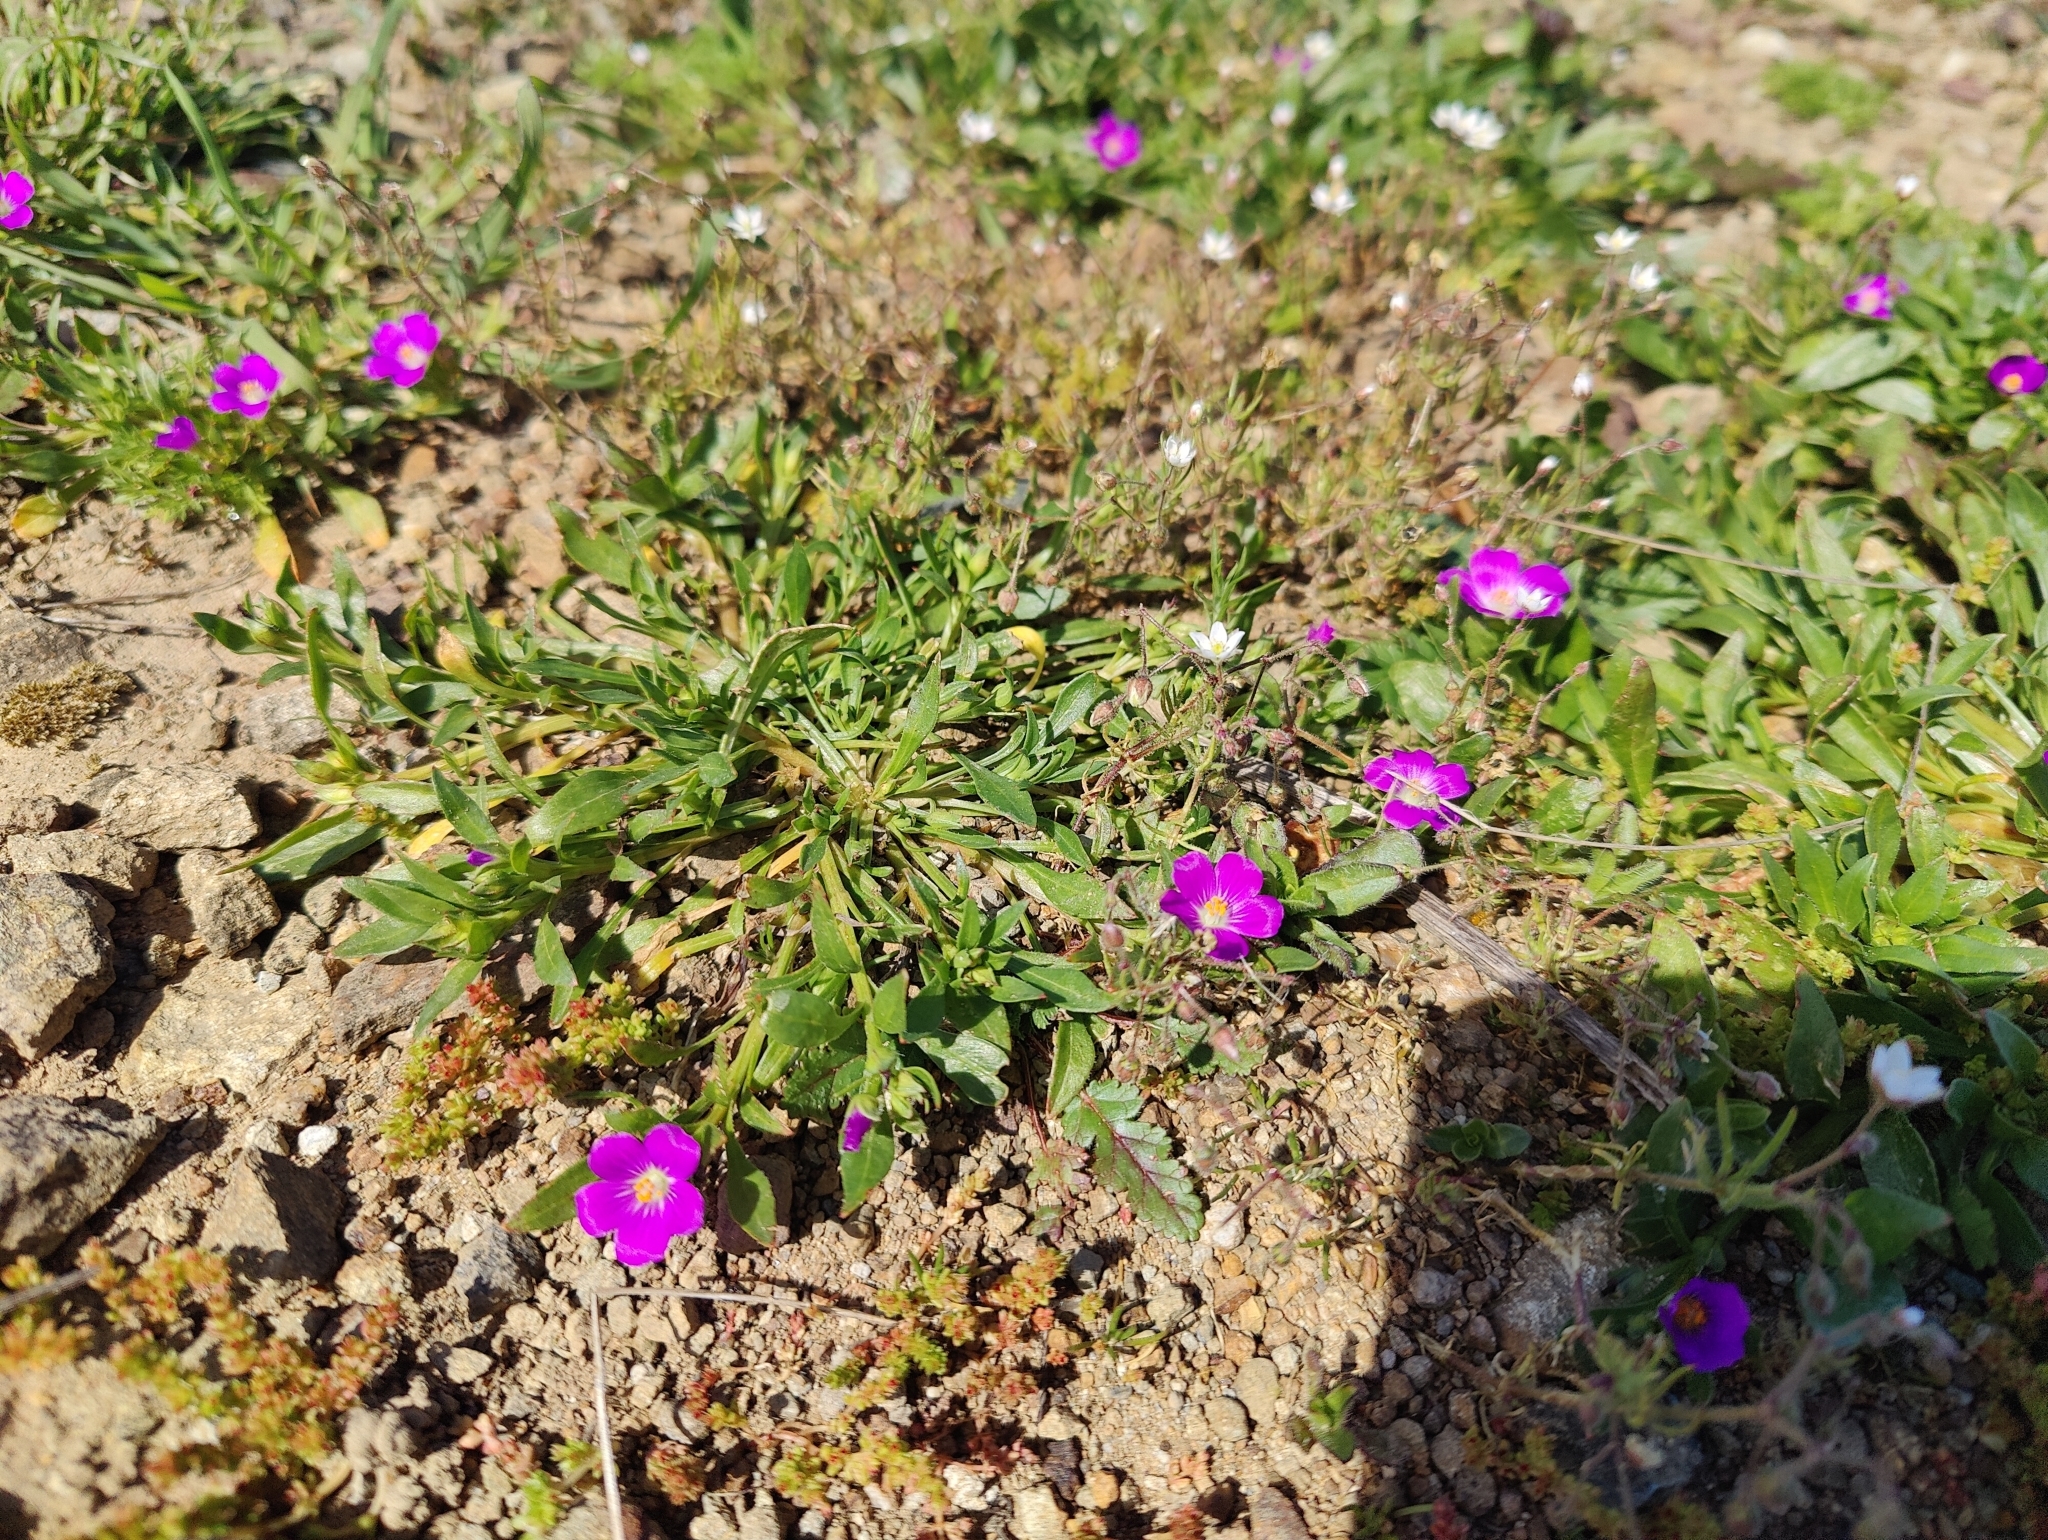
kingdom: Plantae
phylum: Tracheophyta
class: Magnoliopsida
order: Caryophyllales
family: Montiaceae
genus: Calandrinia
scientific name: Calandrinia menziesii
